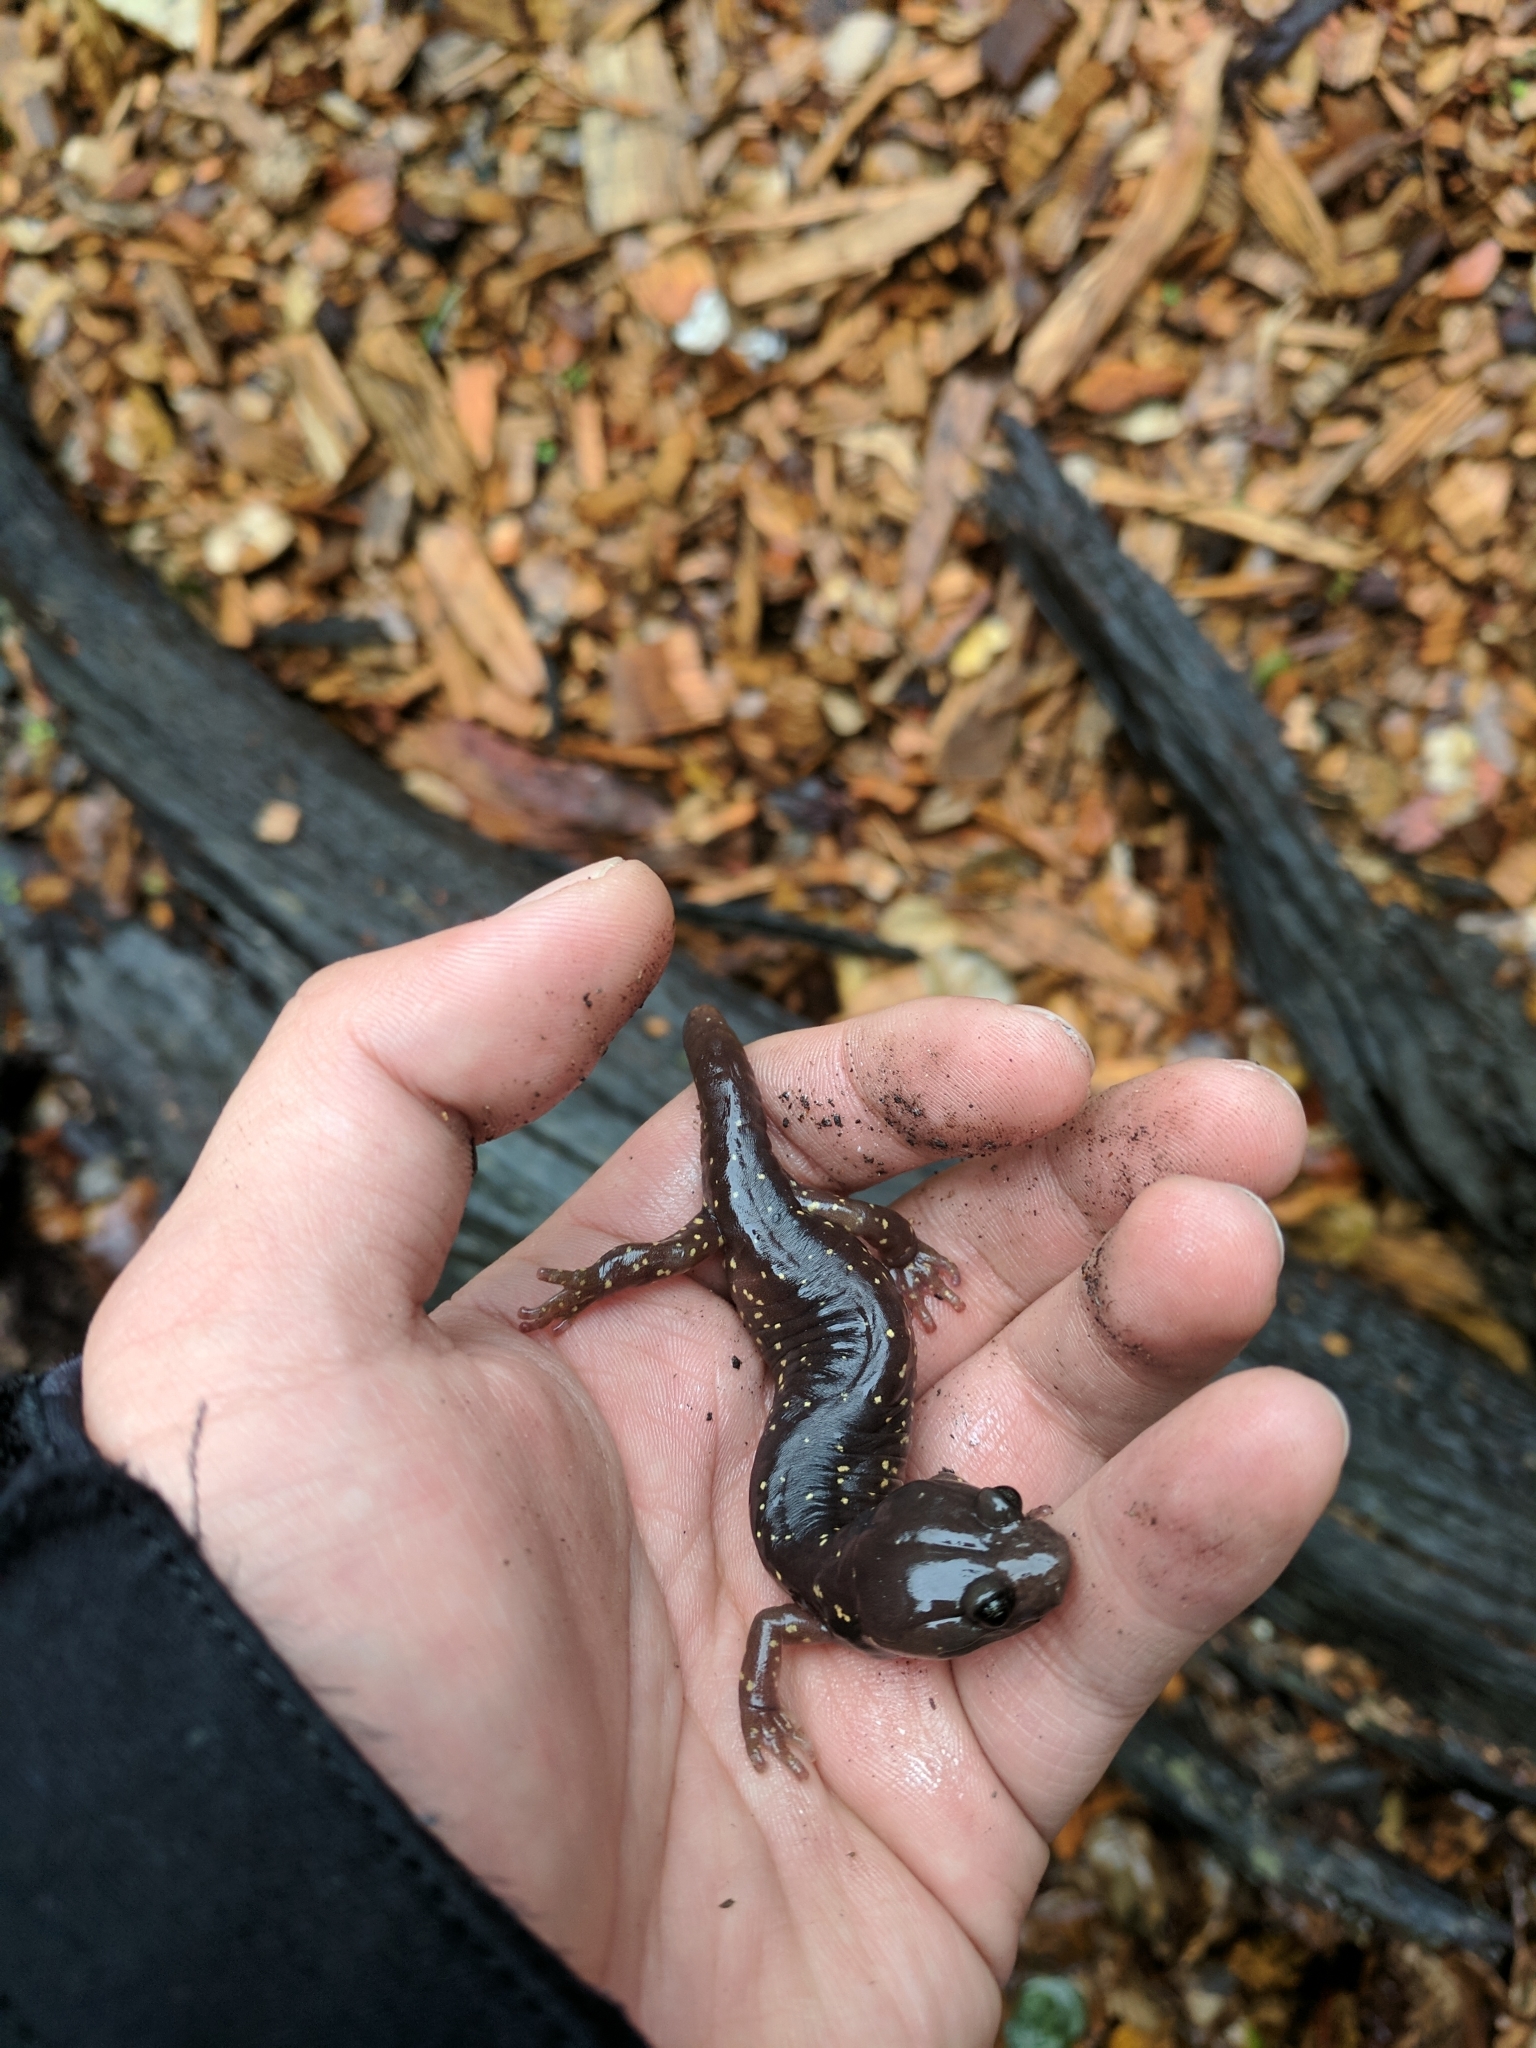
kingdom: Animalia
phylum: Chordata
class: Amphibia
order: Caudata
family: Plethodontidae
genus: Aneides
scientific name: Aneides lugubris
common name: Arboreal salamander
